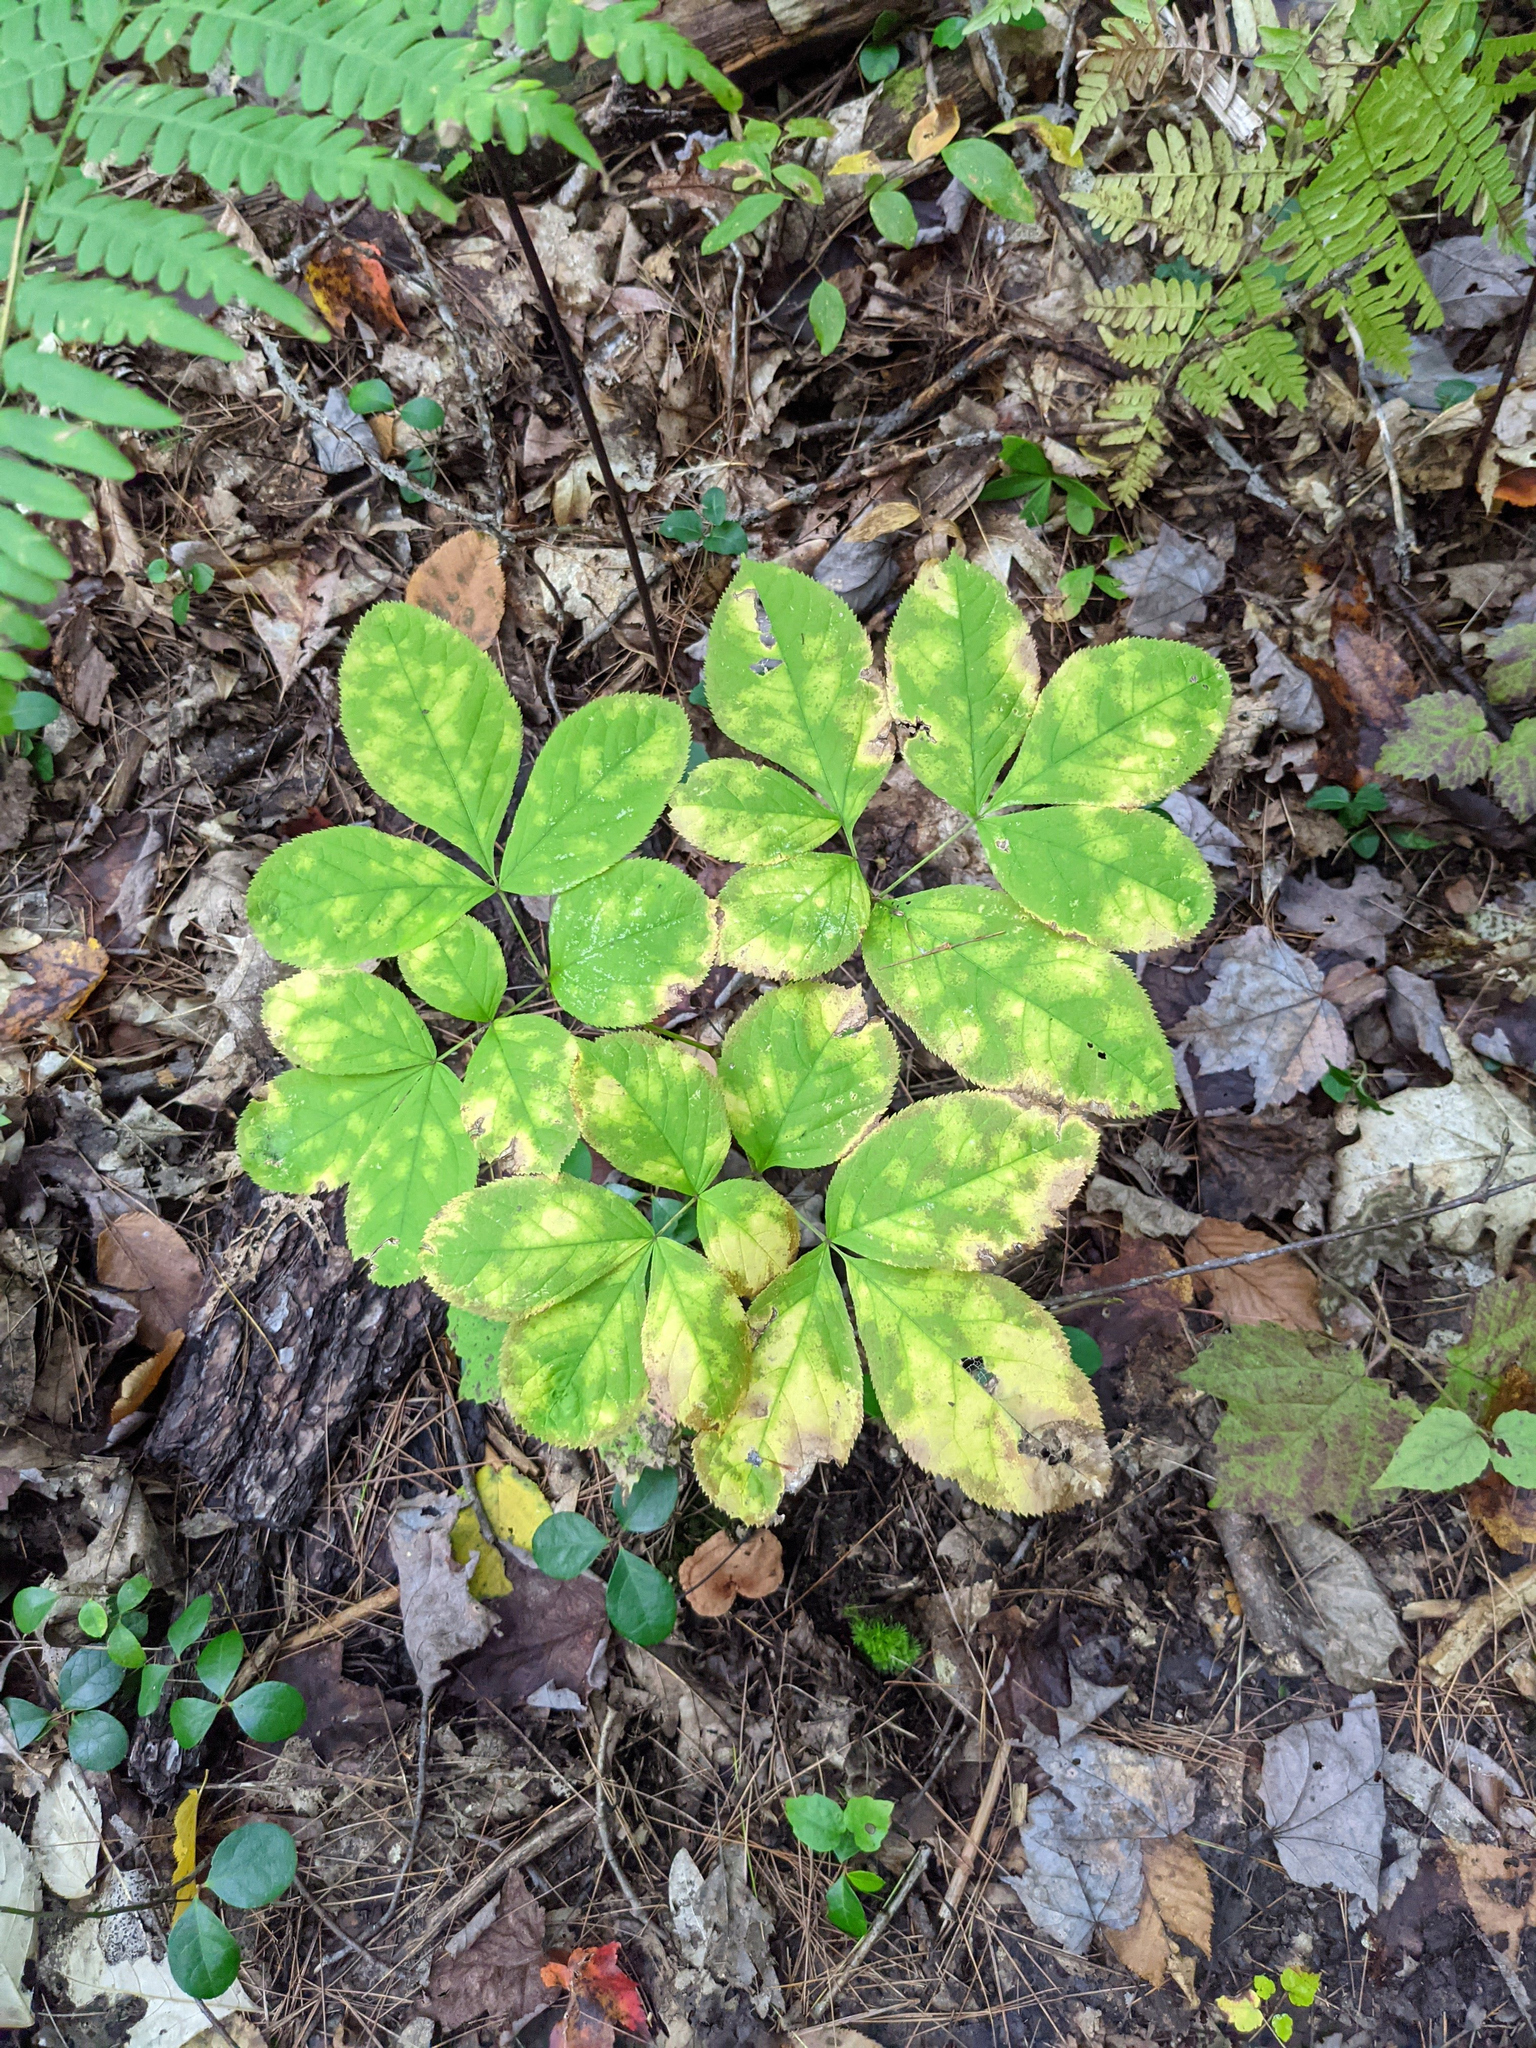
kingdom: Plantae
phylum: Tracheophyta
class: Magnoliopsida
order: Apiales
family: Araliaceae
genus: Aralia
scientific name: Aralia nudicaulis
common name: Wild sarsaparilla
